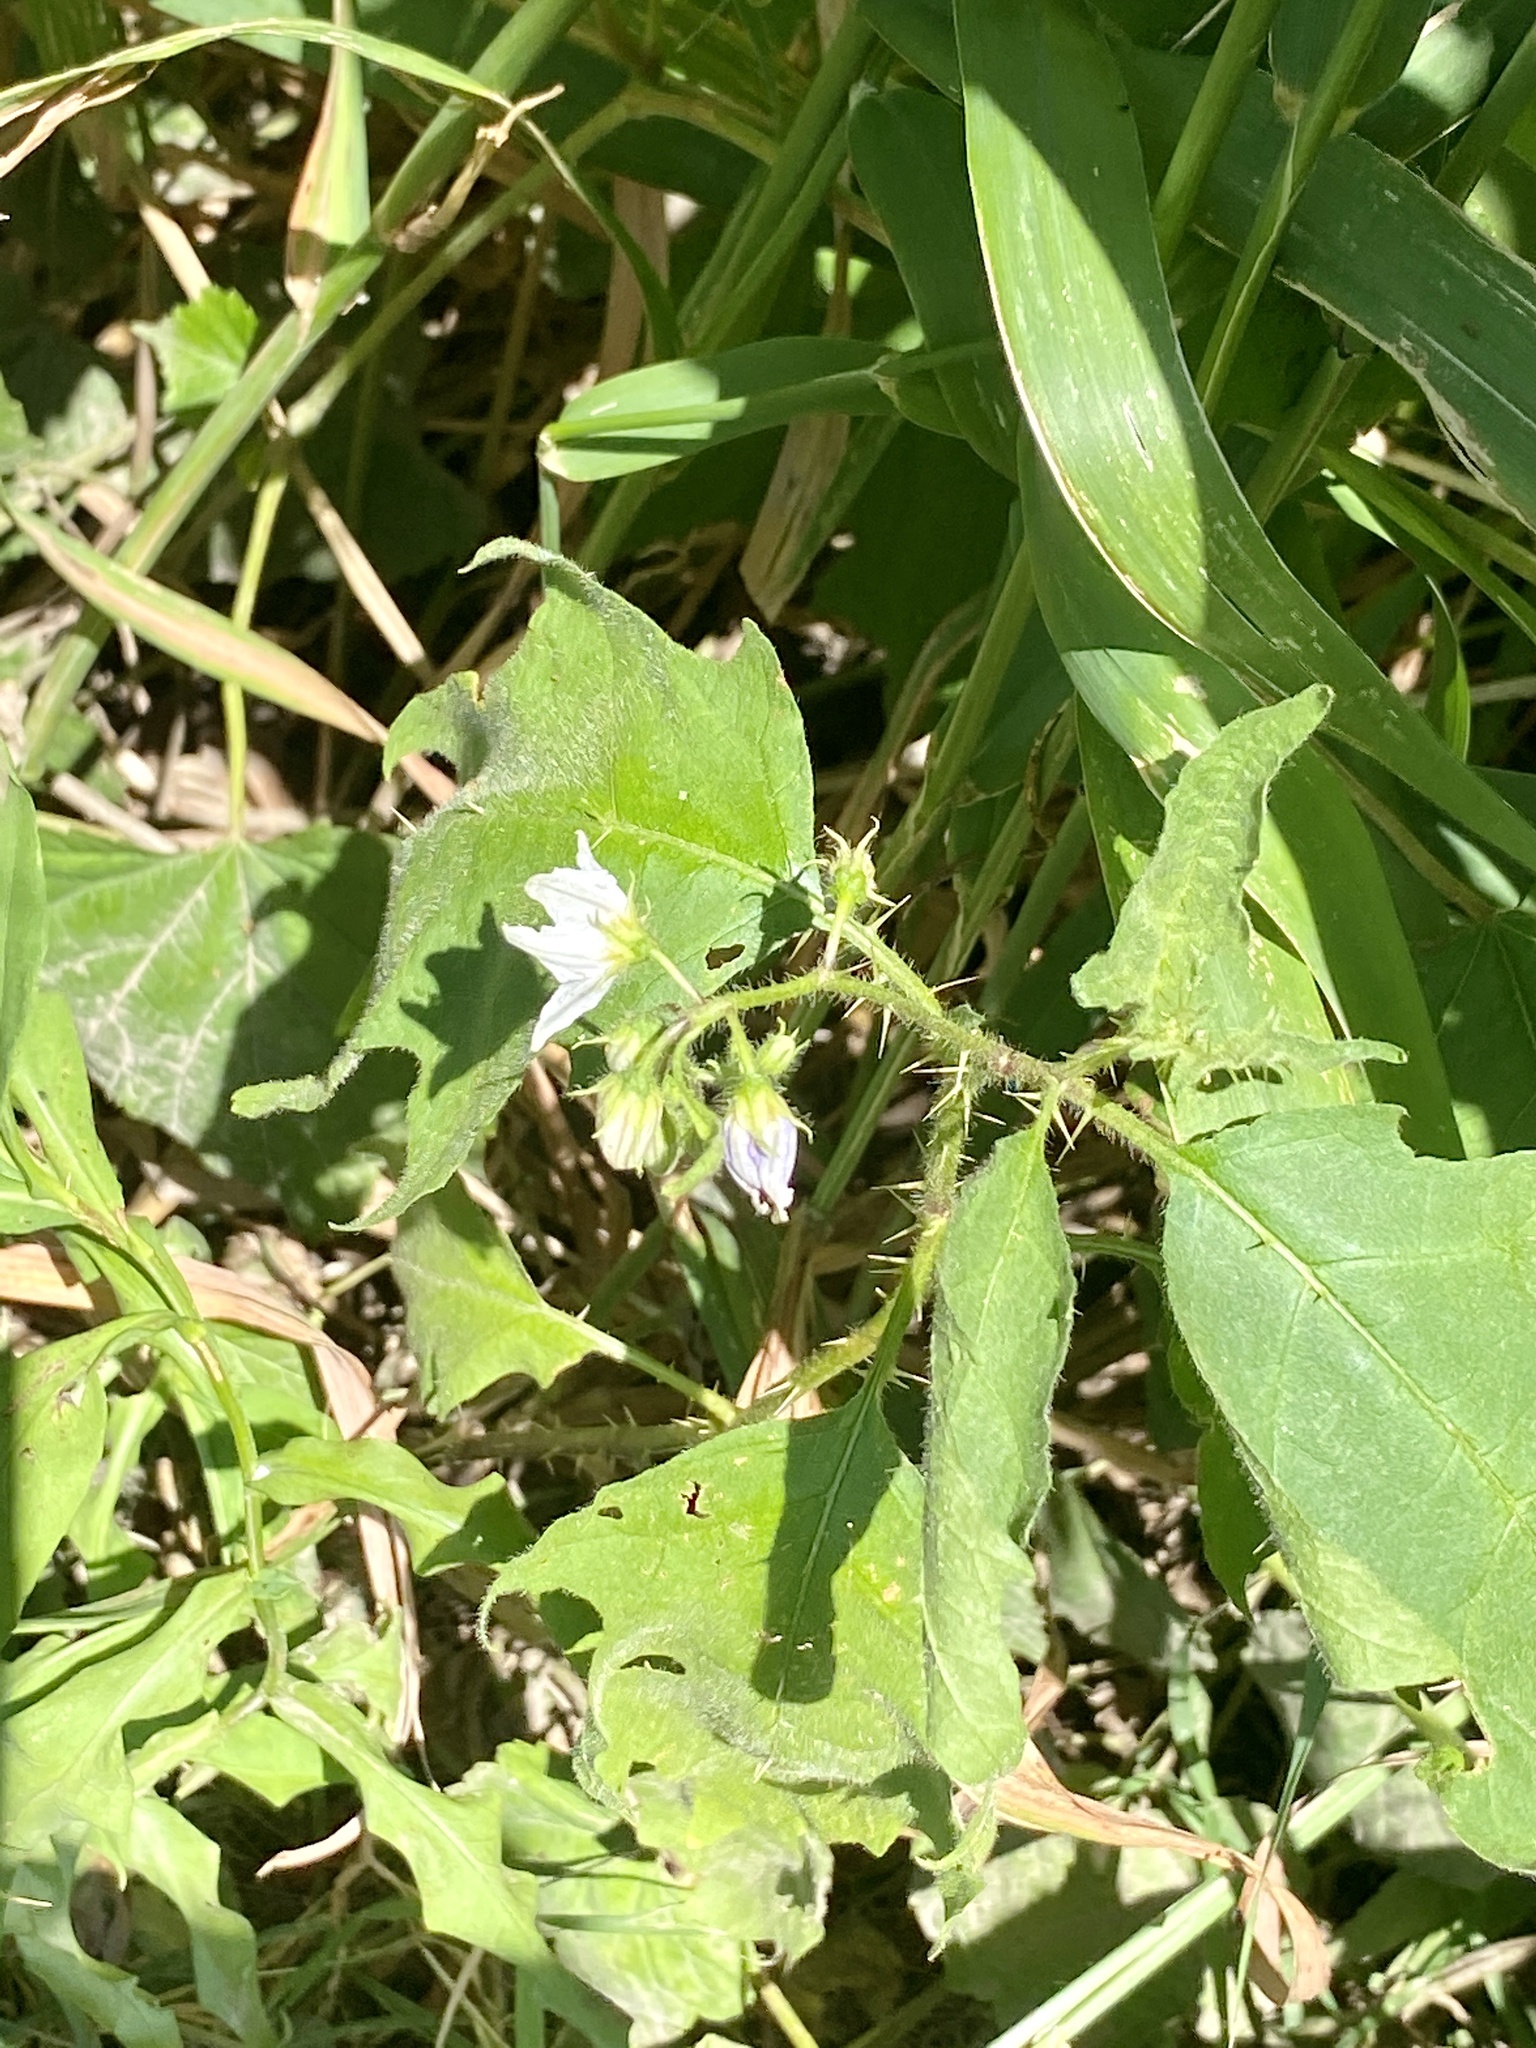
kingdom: Plantae
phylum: Tracheophyta
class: Magnoliopsida
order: Solanales
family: Solanaceae
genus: Solanum
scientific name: Solanum carolinense
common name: Horse-nettle
